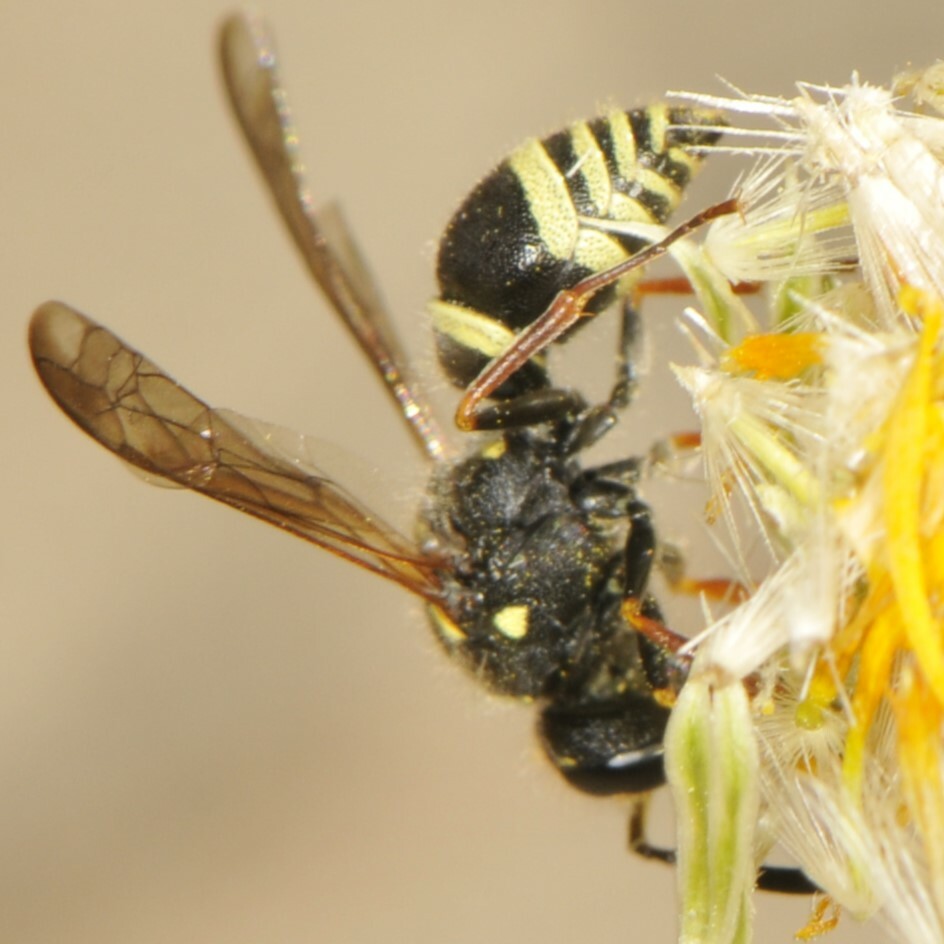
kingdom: Animalia
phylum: Arthropoda
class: Insecta
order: Hymenoptera
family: Vespidae
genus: Ancistrocerus
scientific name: Ancistrocerus
